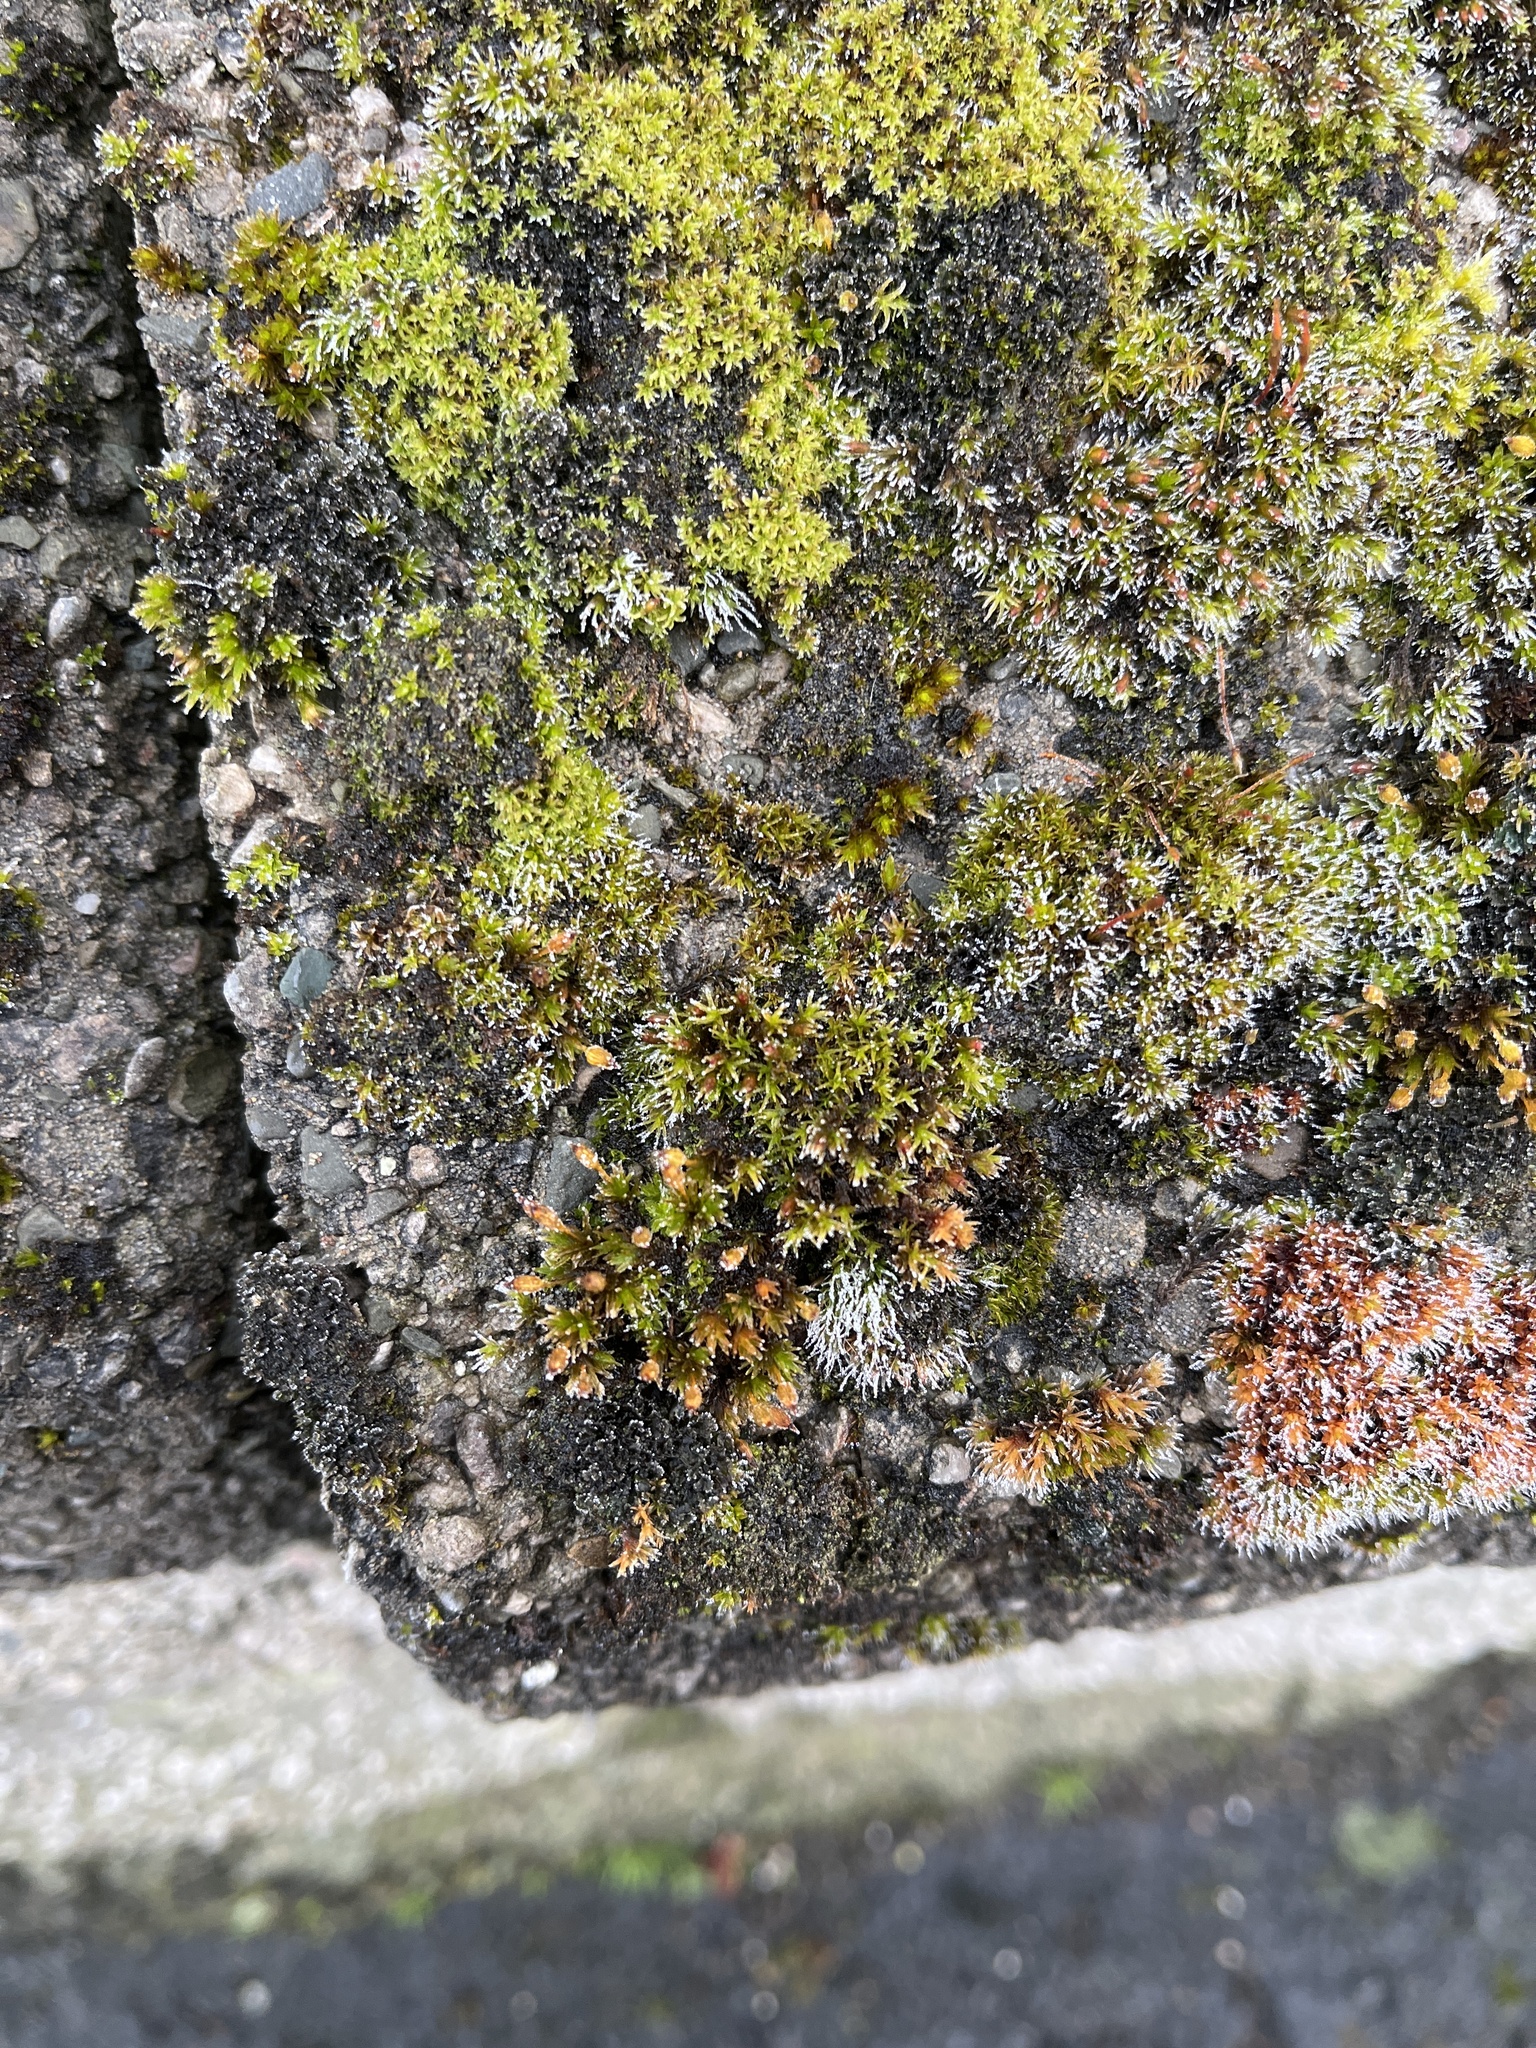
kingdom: Plantae
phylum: Bryophyta
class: Bryopsida
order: Orthotrichales
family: Orthotrichaceae
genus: Orthotrichum
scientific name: Orthotrichum anomalum
